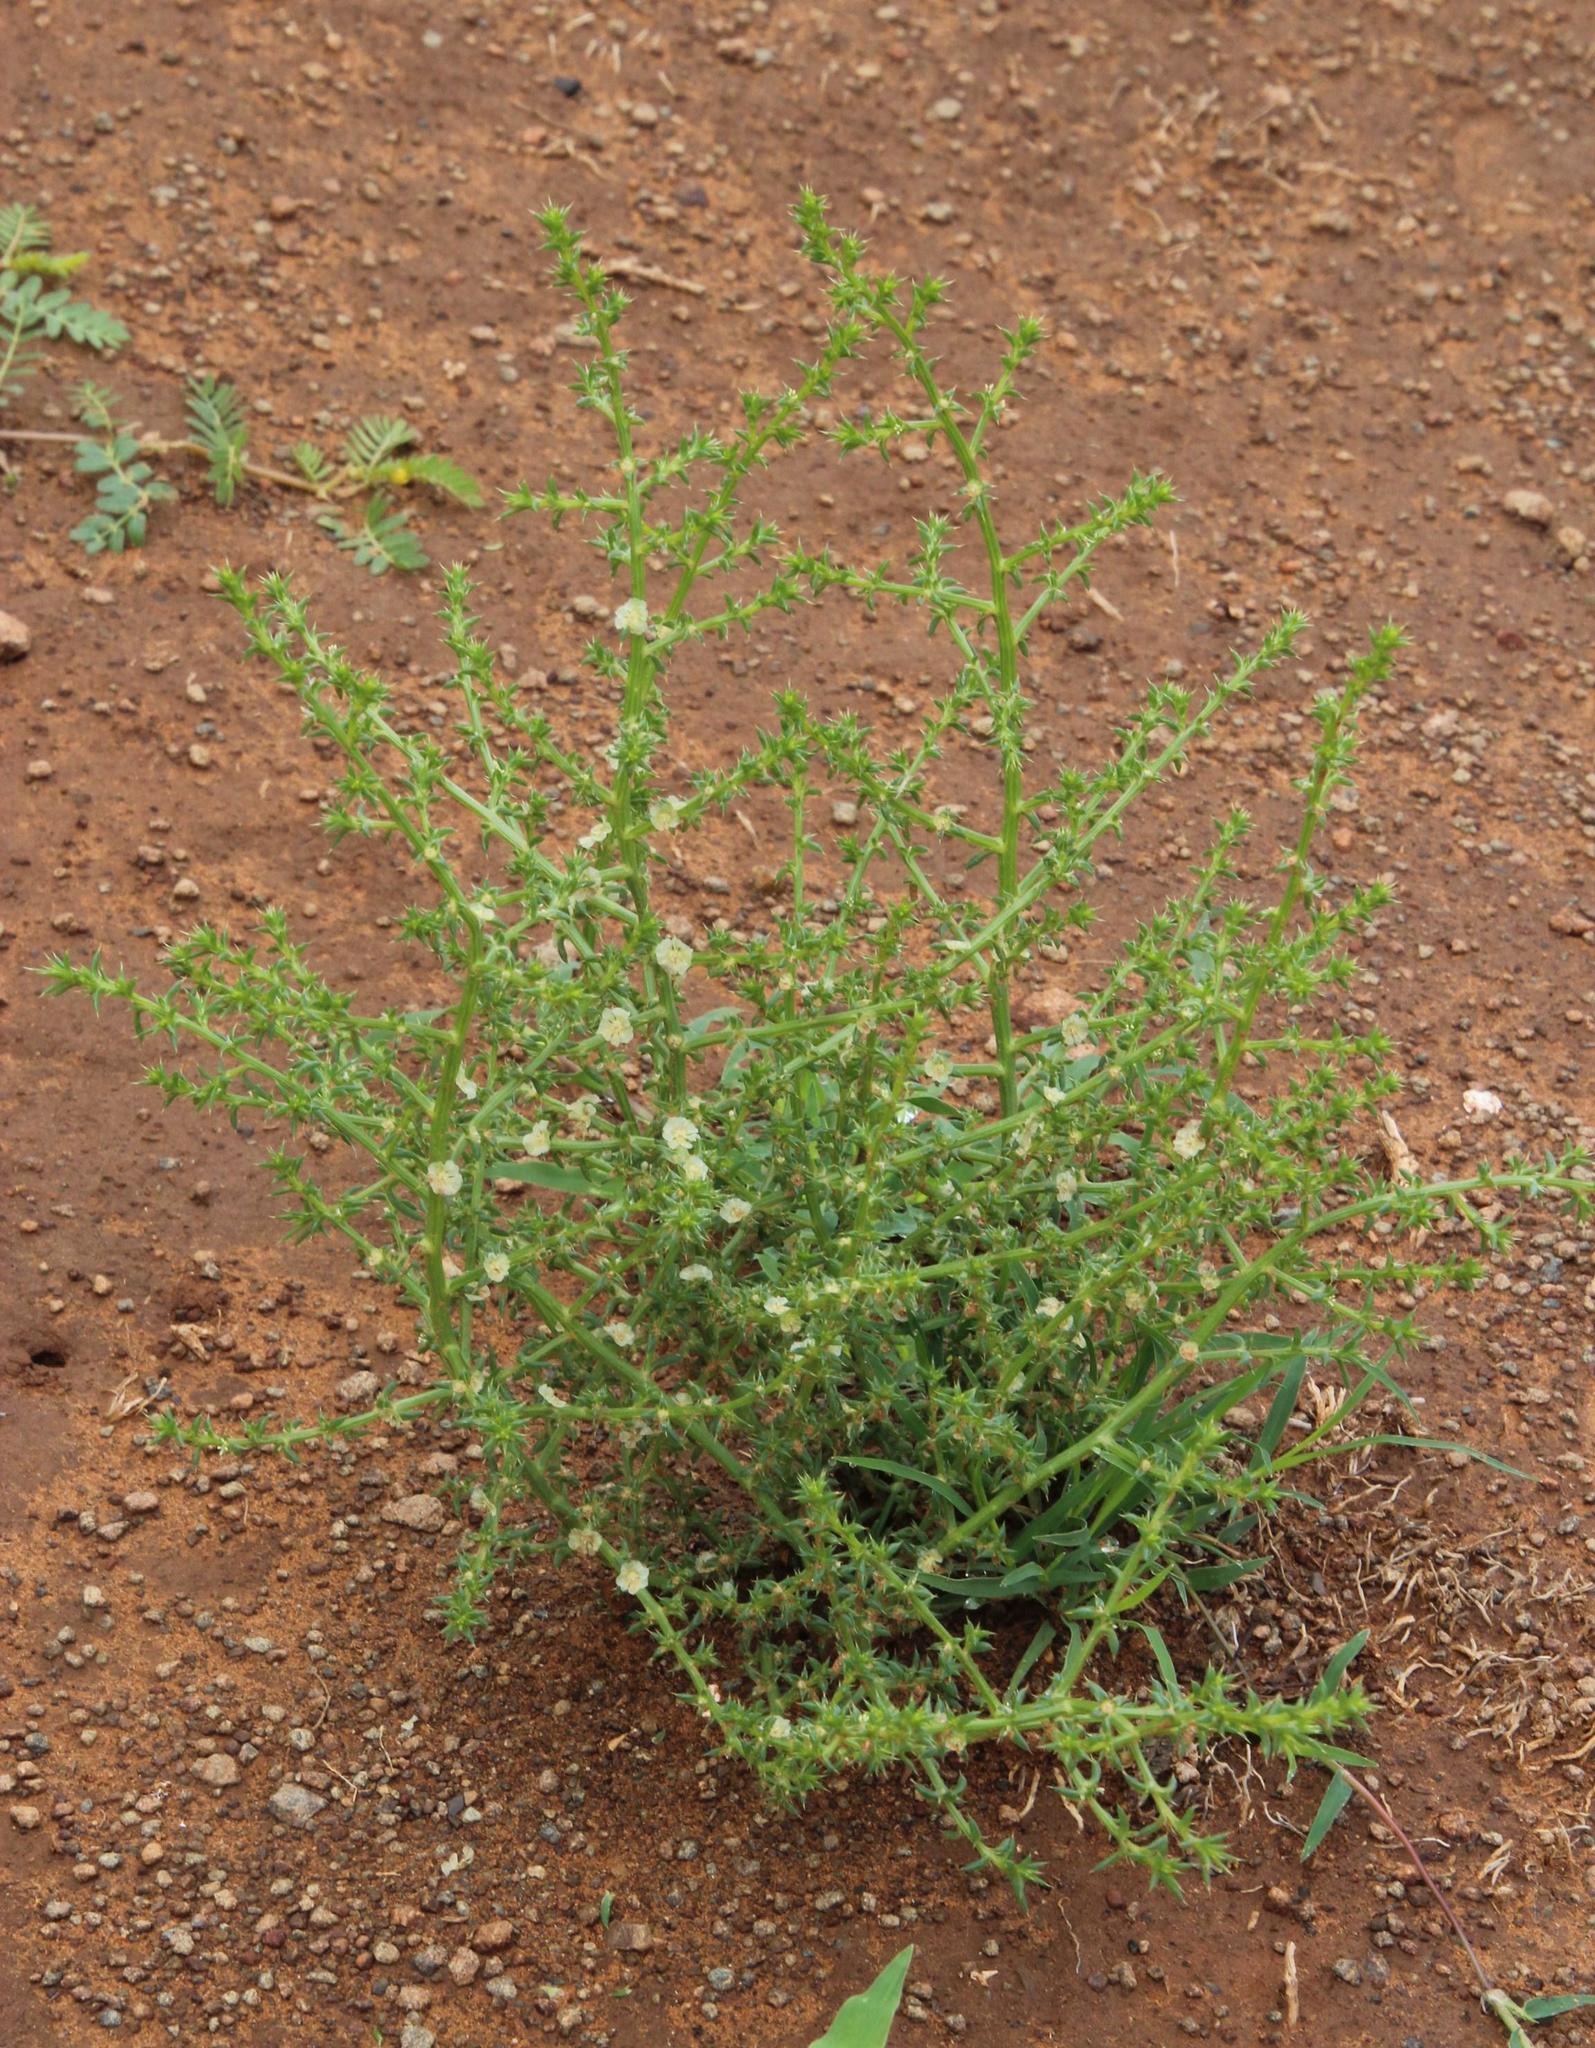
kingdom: Plantae
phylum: Tracheophyta
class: Magnoliopsida
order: Caryophyllales
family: Amaranthaceae
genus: Salsola
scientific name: Salsola kali
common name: Saltwort
